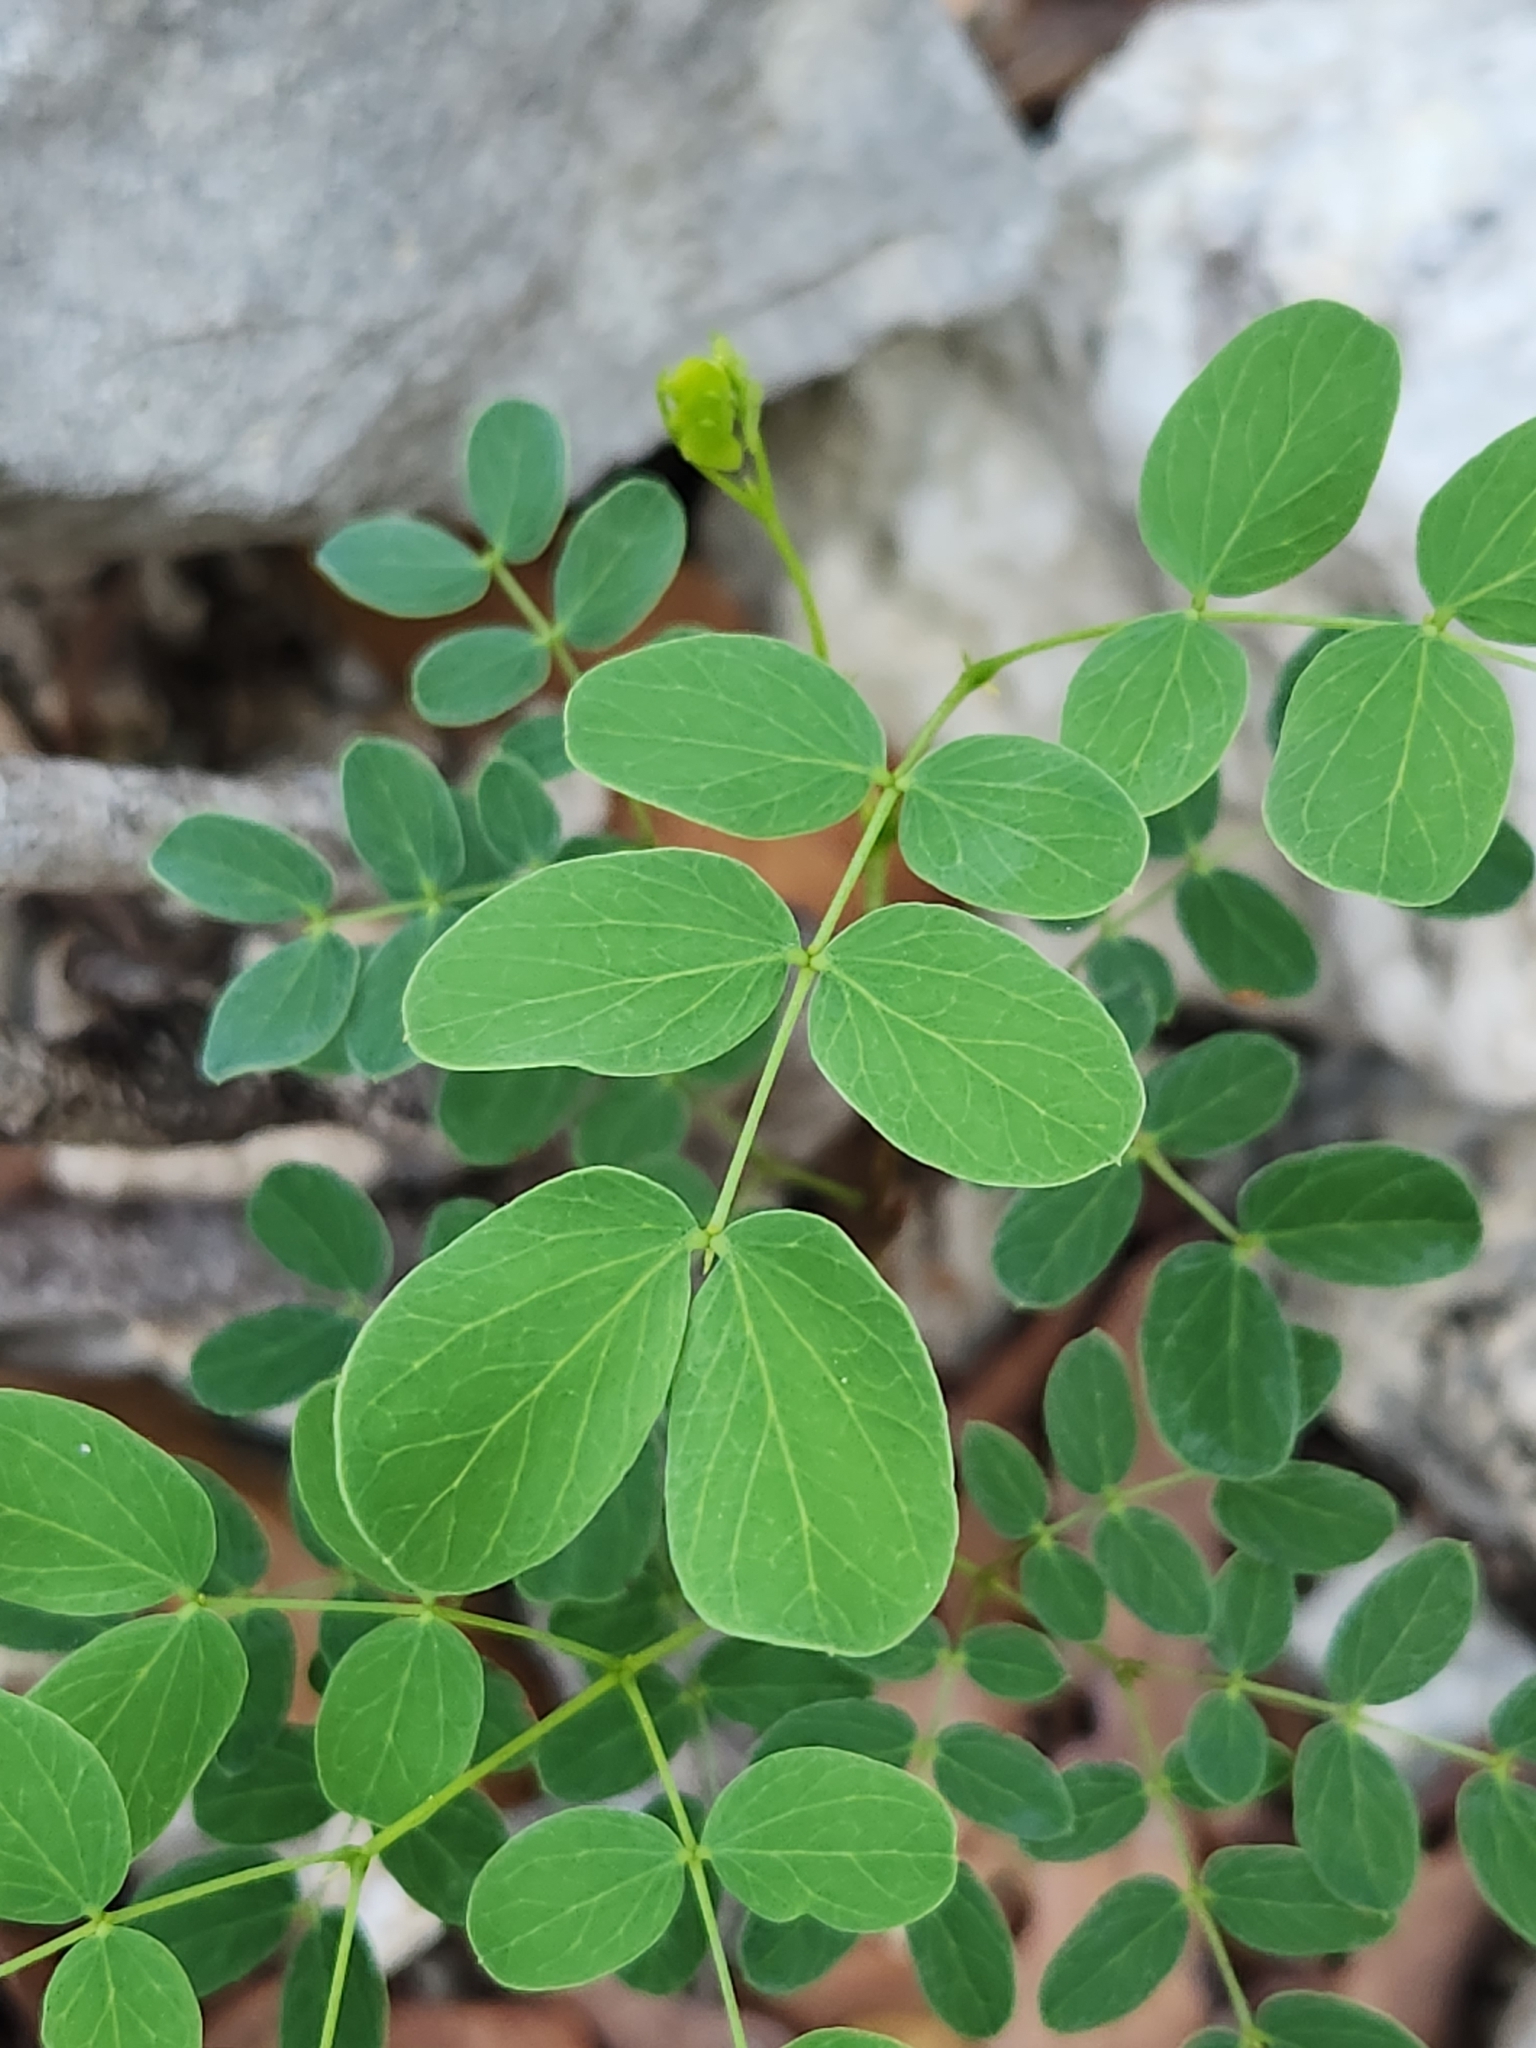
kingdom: Plantae
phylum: Tracheophyta
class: Magnoliopsida
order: Fabales
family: Fabaceae
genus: Leucaena
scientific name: Leucaena retusa
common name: Littleleaf leadtree
